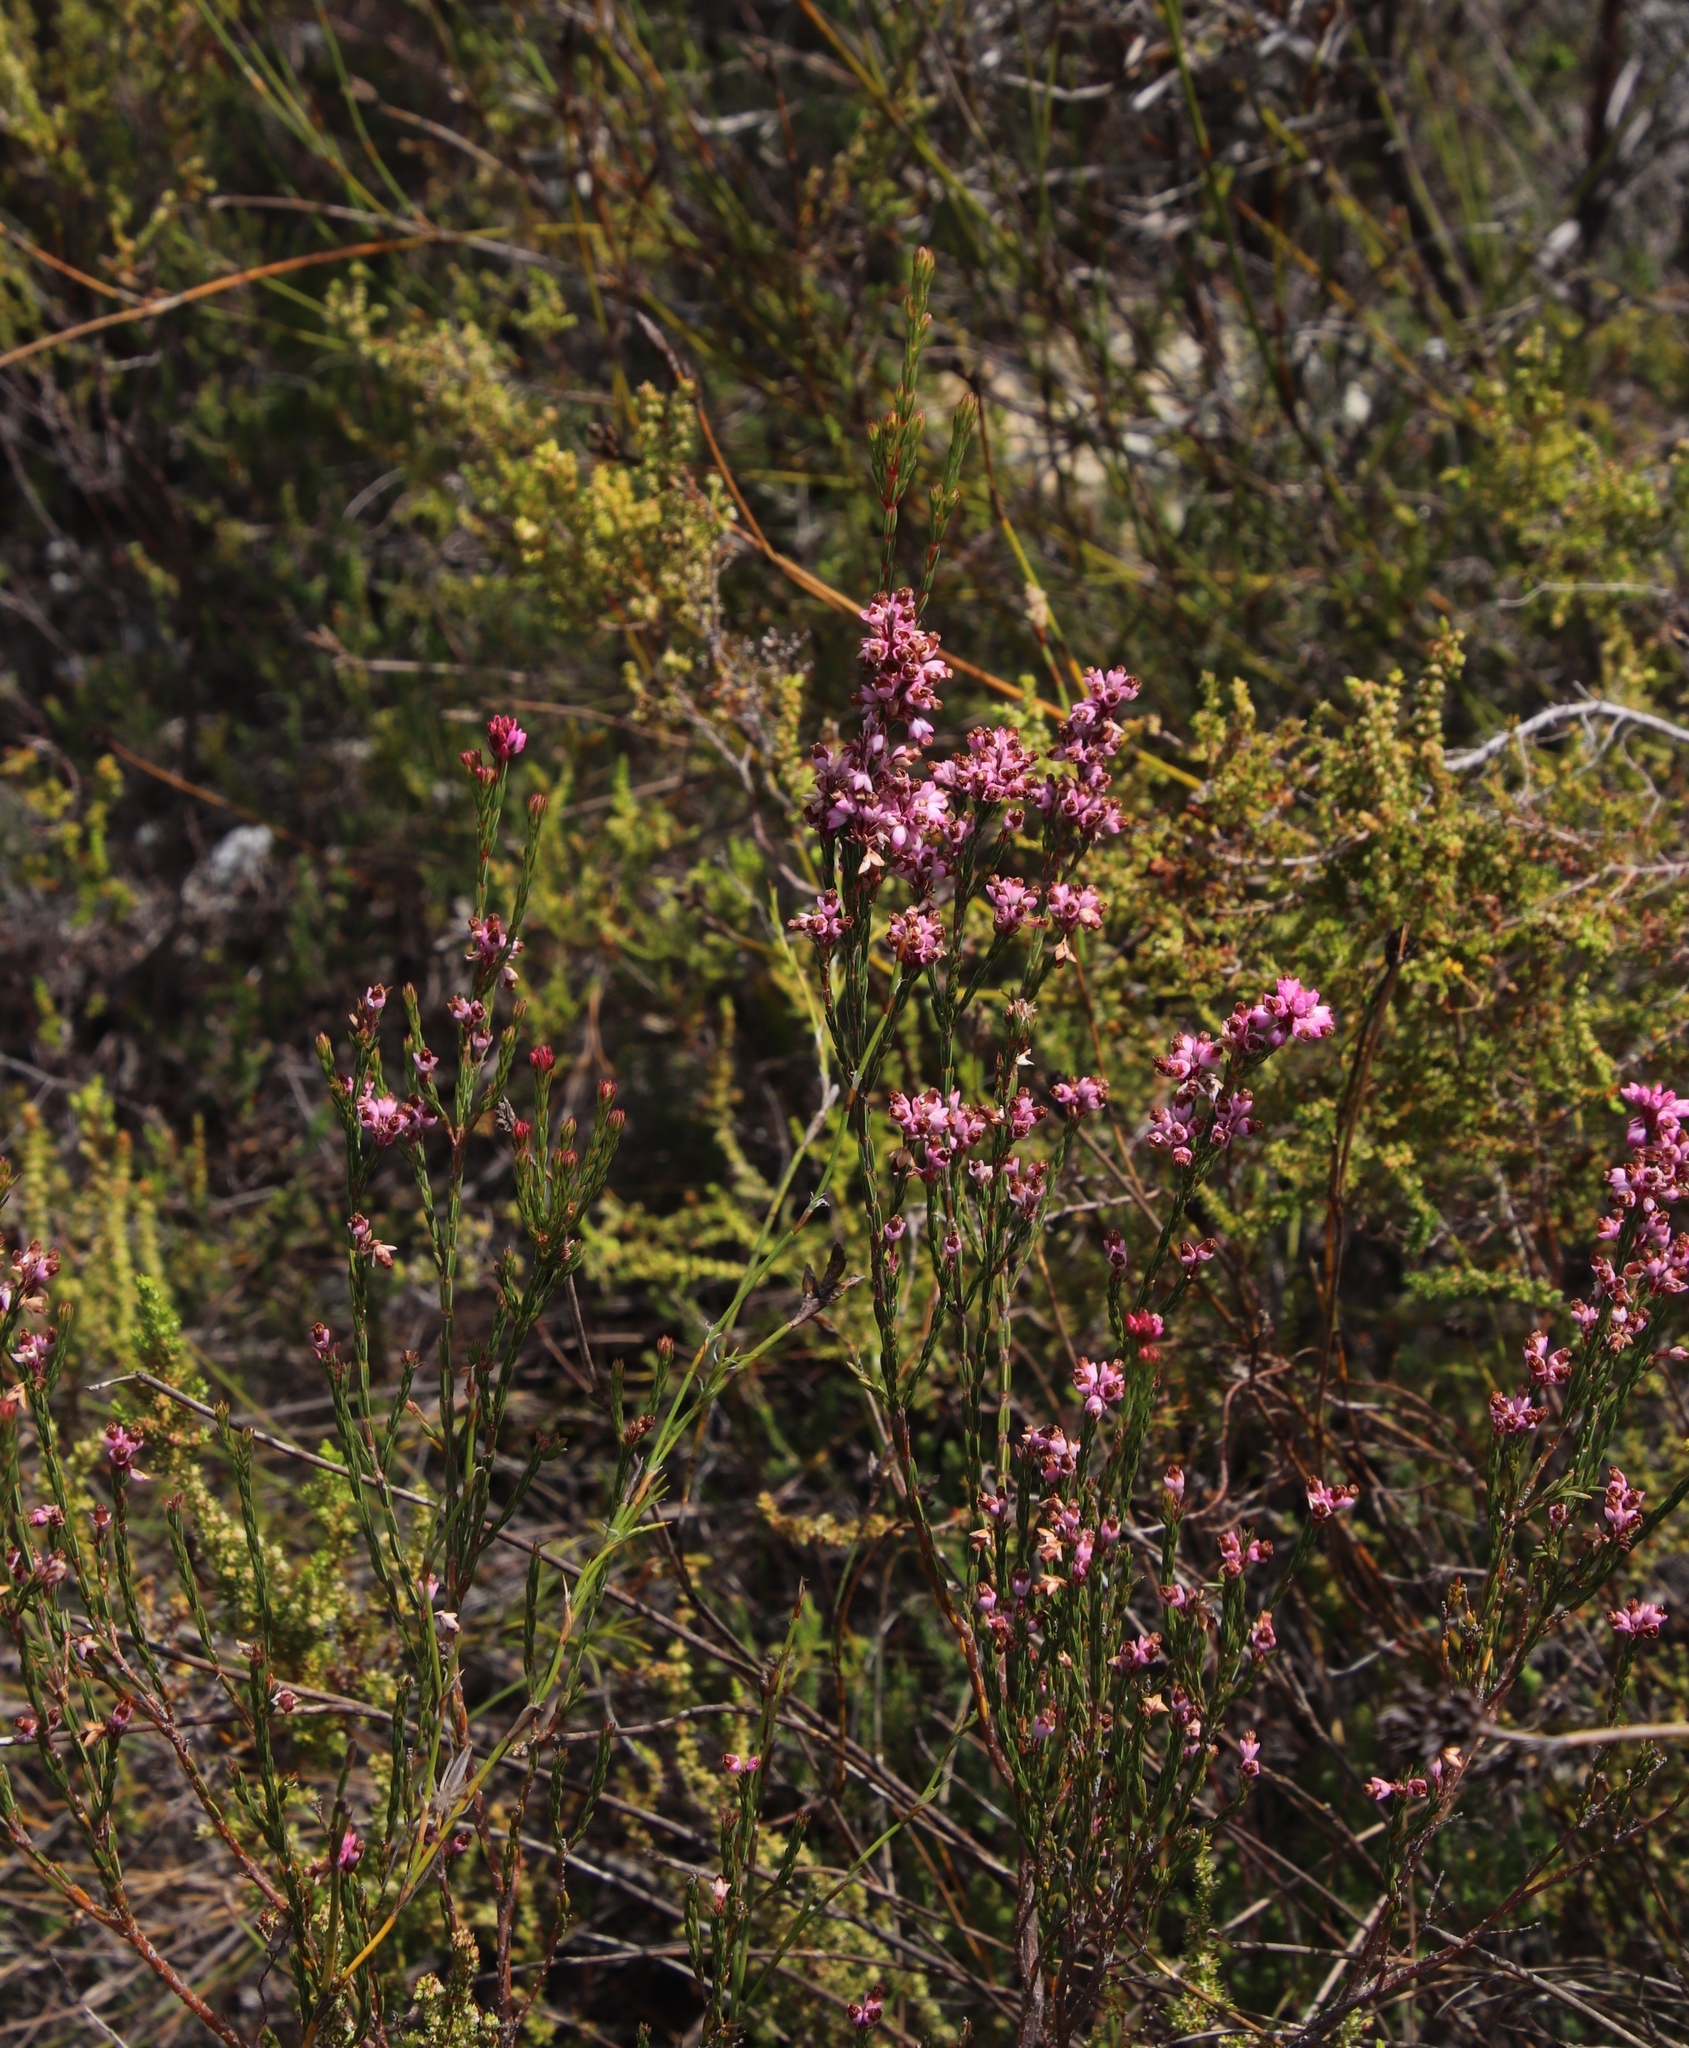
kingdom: Plantae
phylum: Tracheophyta
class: Magnoliopsida
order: Ericales
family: Ericaceae
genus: Erica
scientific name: Erica corifolia
